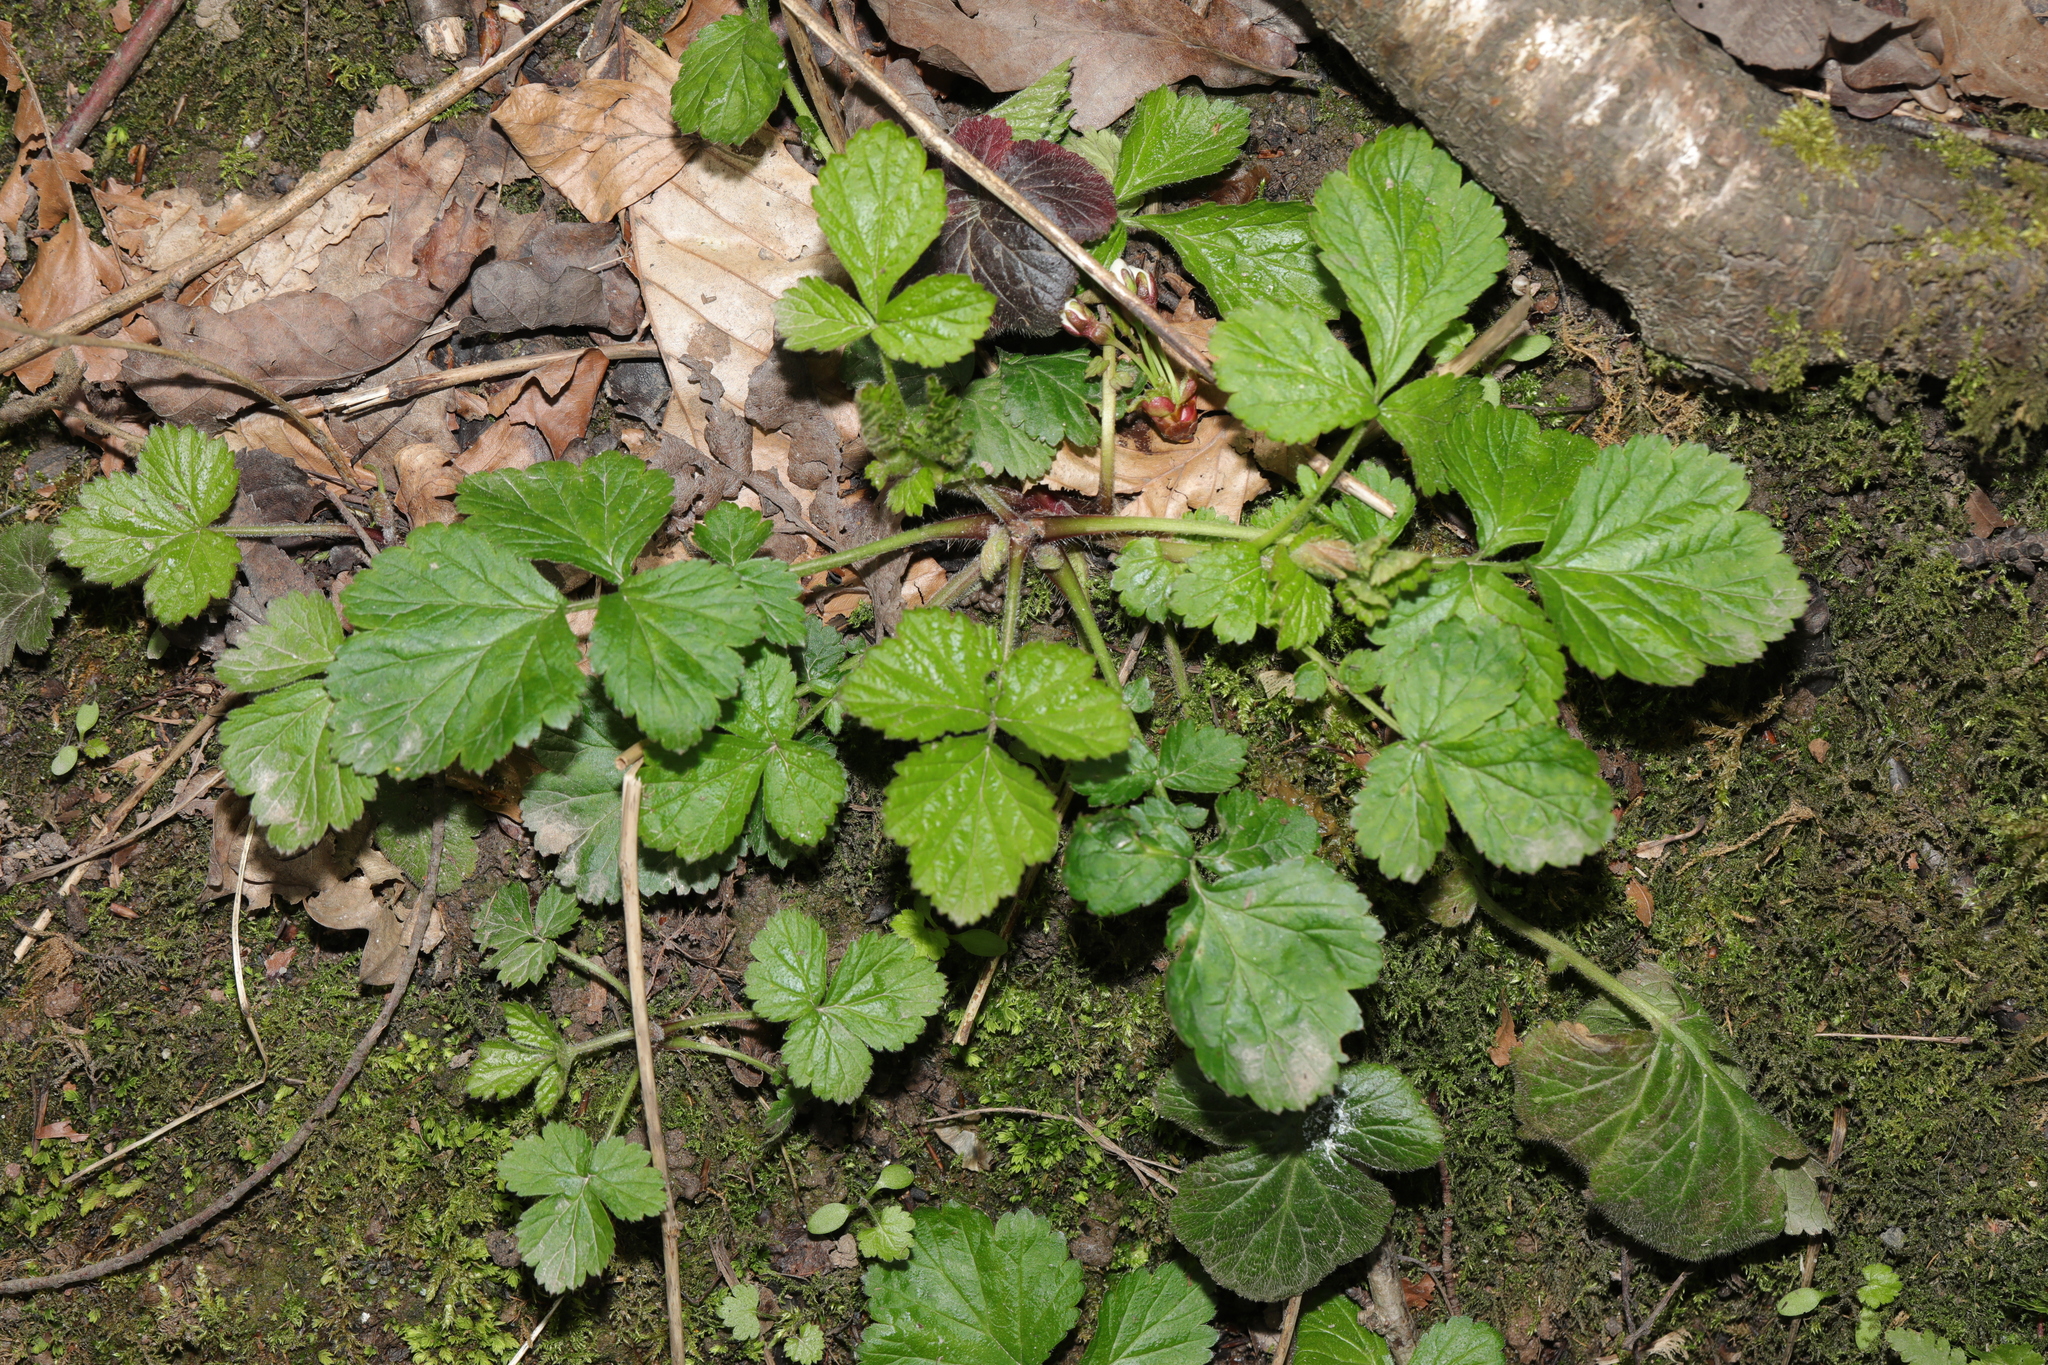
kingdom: Plantae
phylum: Tracheophyta
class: Magnoliopsida
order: Rosales
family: Rosaceae
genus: Geum
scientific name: Geum urbanum
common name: Wood avens
